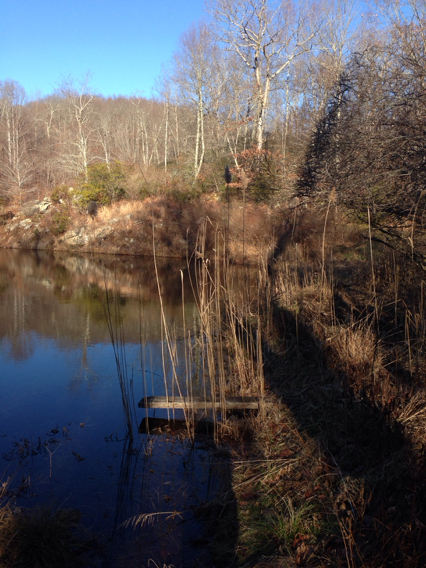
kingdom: Plantae
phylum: Tracheophyta
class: Liliopsida
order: Poales
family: Poaceae
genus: Phragmites
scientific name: Phragmites australis
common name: Common reed
